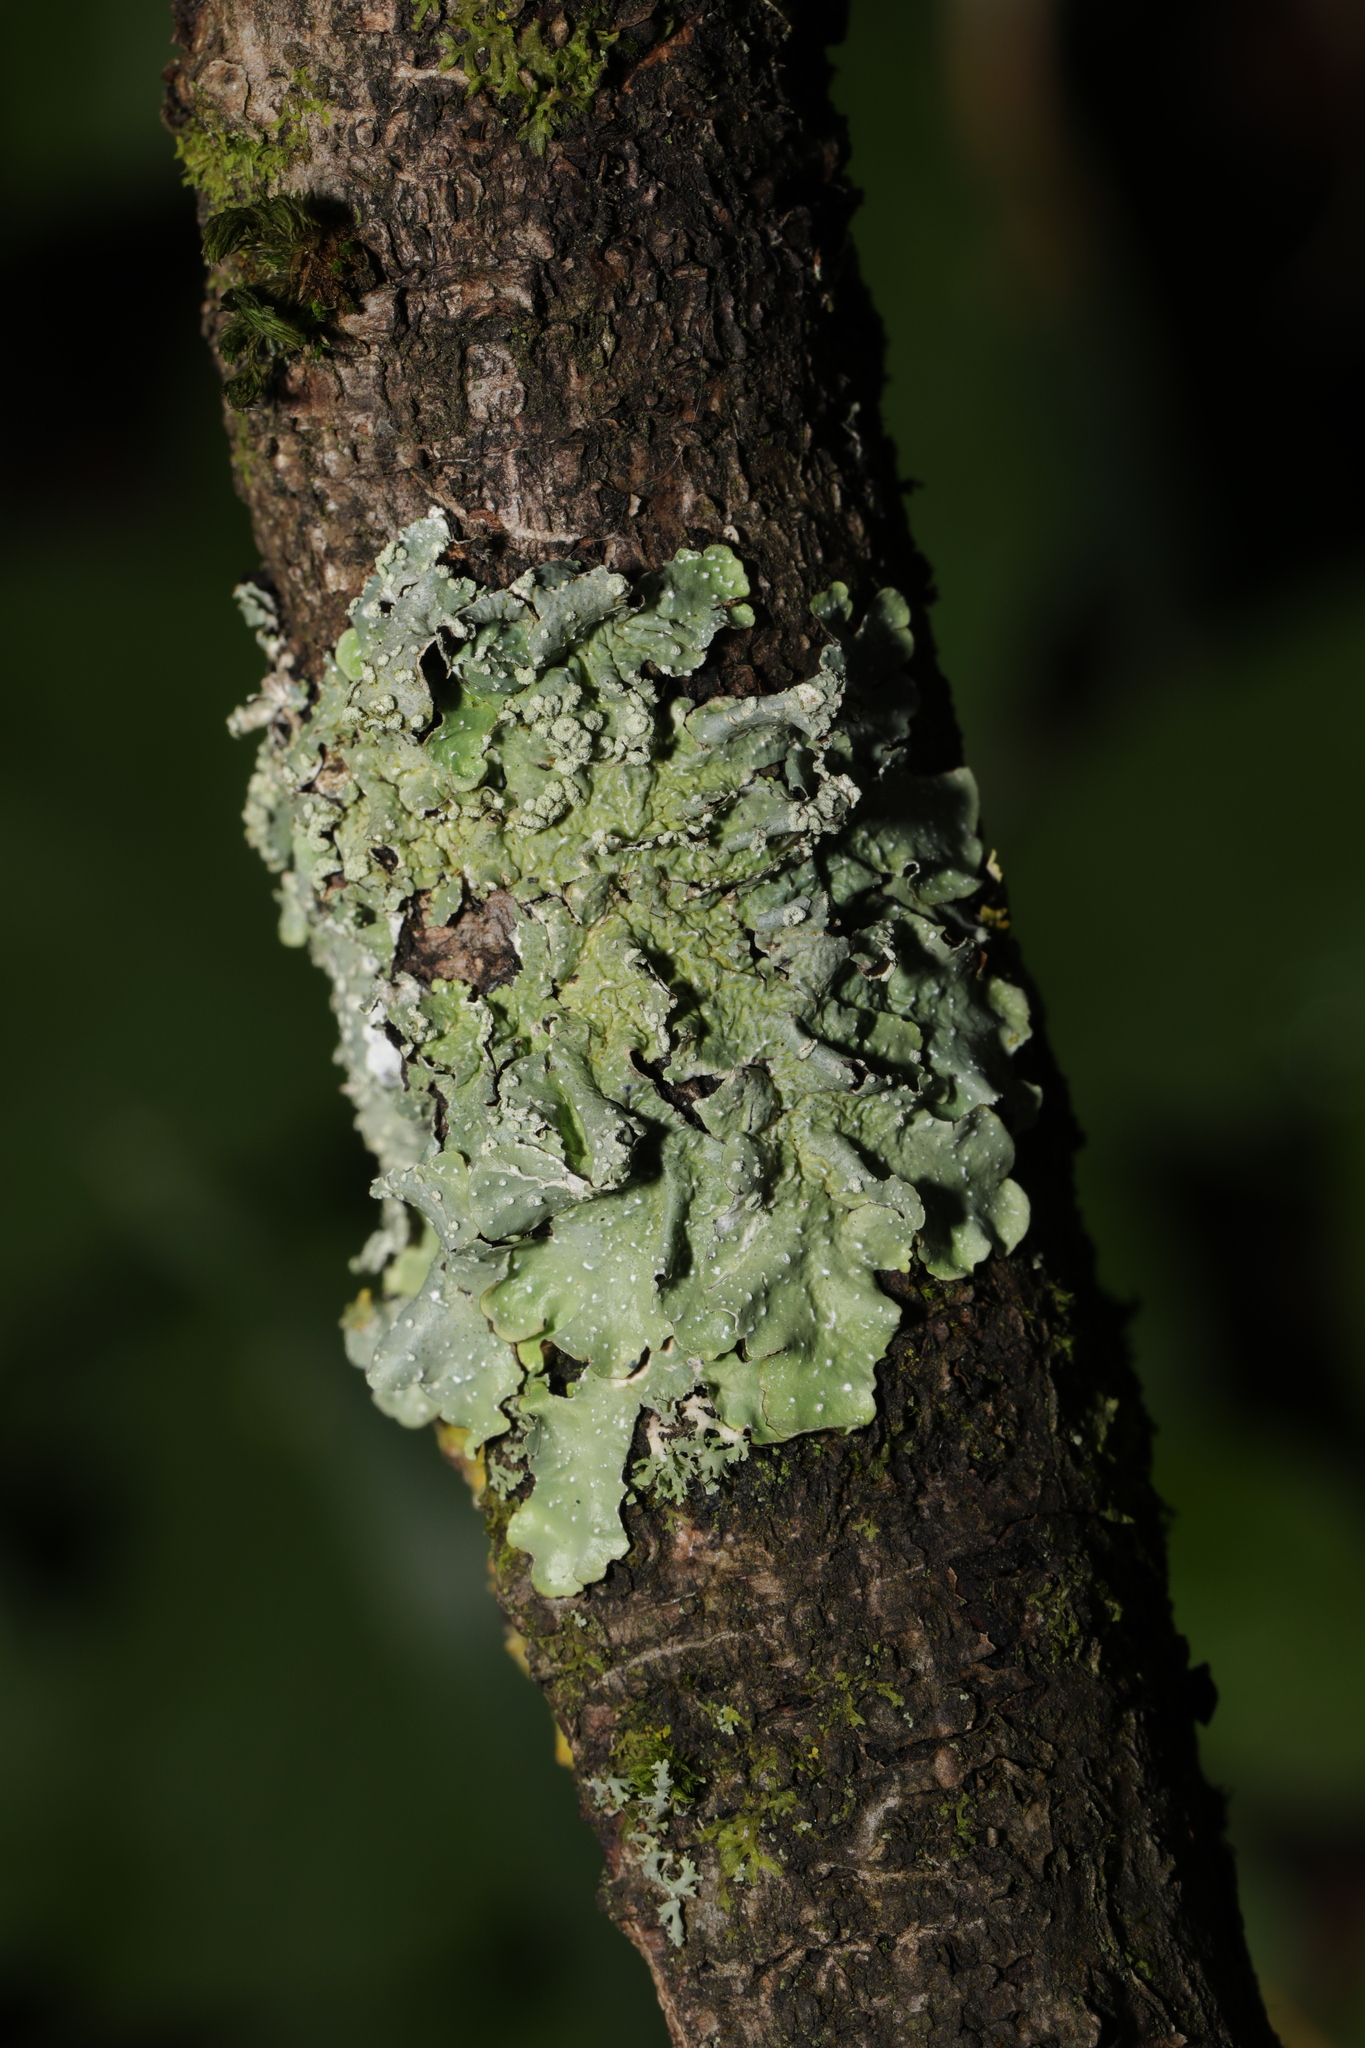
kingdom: Fungi
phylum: Ascomycota
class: Lecanoromycetes
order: Lecanorales
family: Parmeliaceae
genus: Punctelia
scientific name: Punctelia subrudecta
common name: Powdered speckled shield lichen
